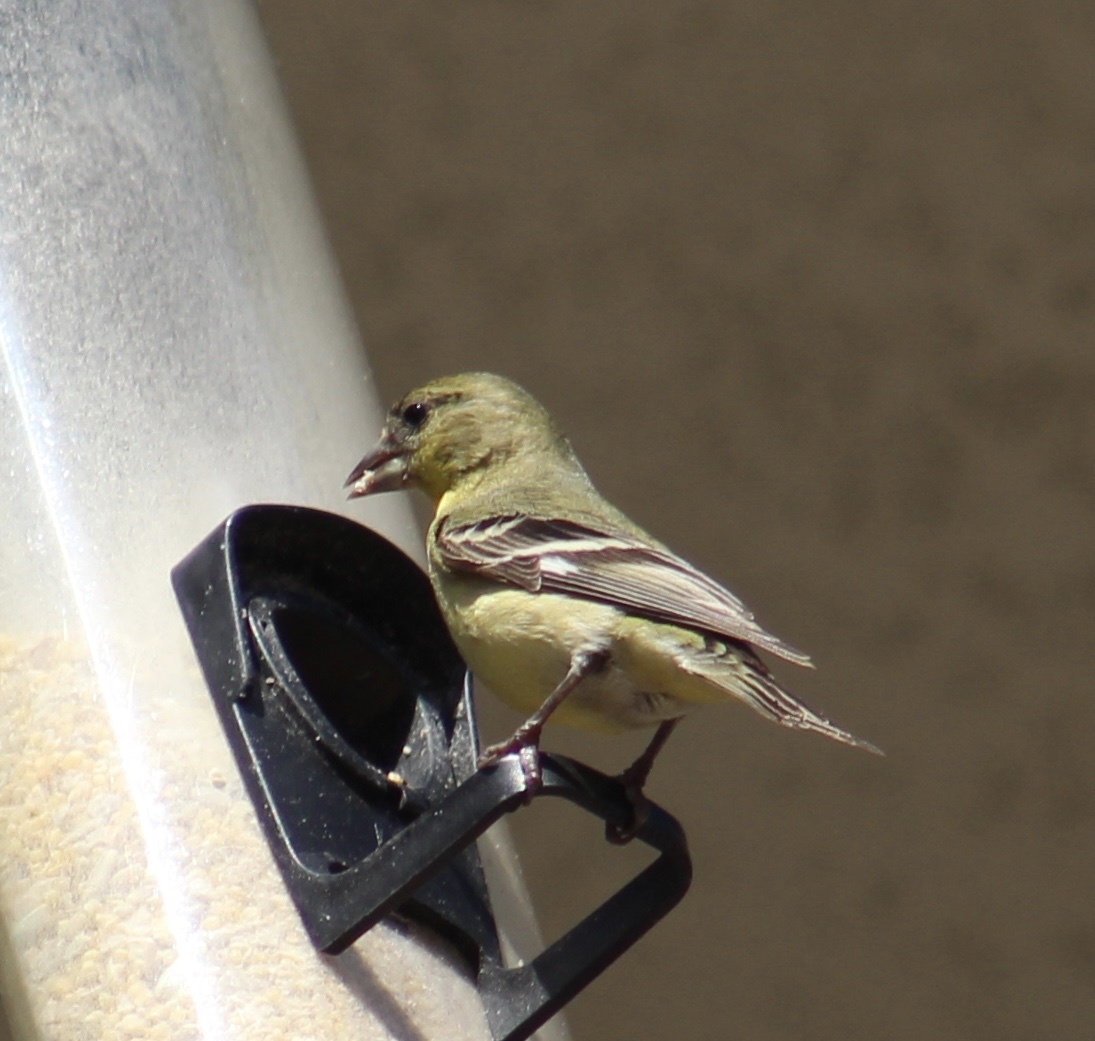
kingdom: Animalia
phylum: Chordata
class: Aves
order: Passeriformes
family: Fringillidae
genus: Spinus
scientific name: Spinus psaltria
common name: Lesser goldfinch
